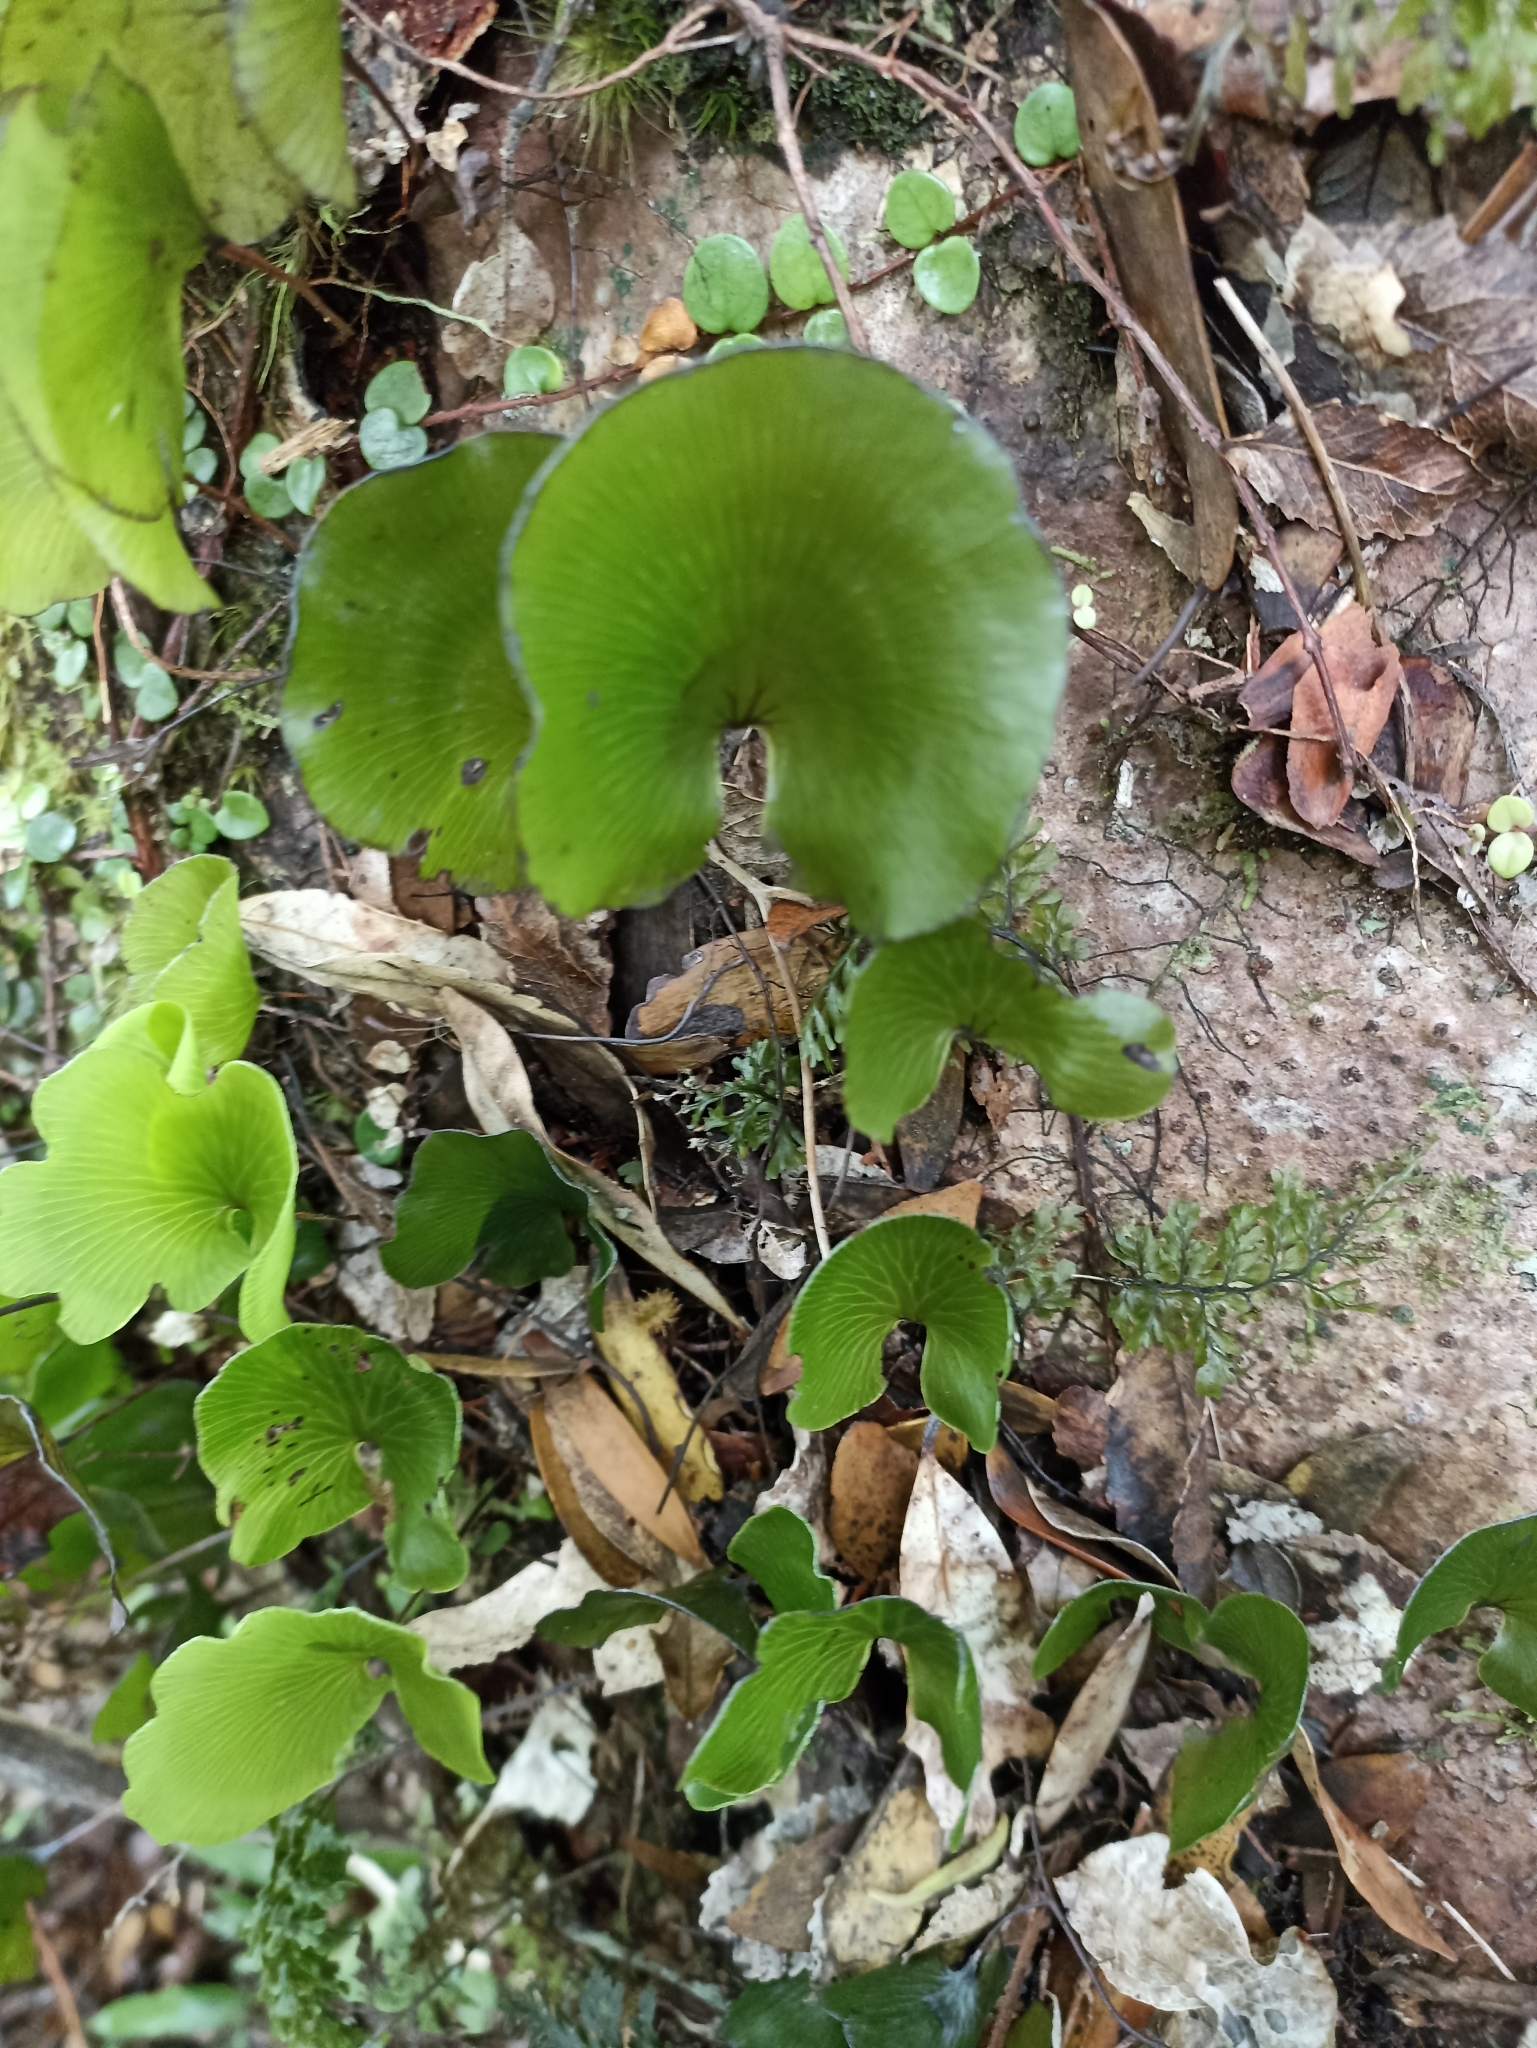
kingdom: Plantae
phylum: Tracheophyta
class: Polypodiopsida
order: Hymenophyllales
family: Hymenophyllaceae
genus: Hymenophyllum
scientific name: Hymenophyllum nephrophyllum
